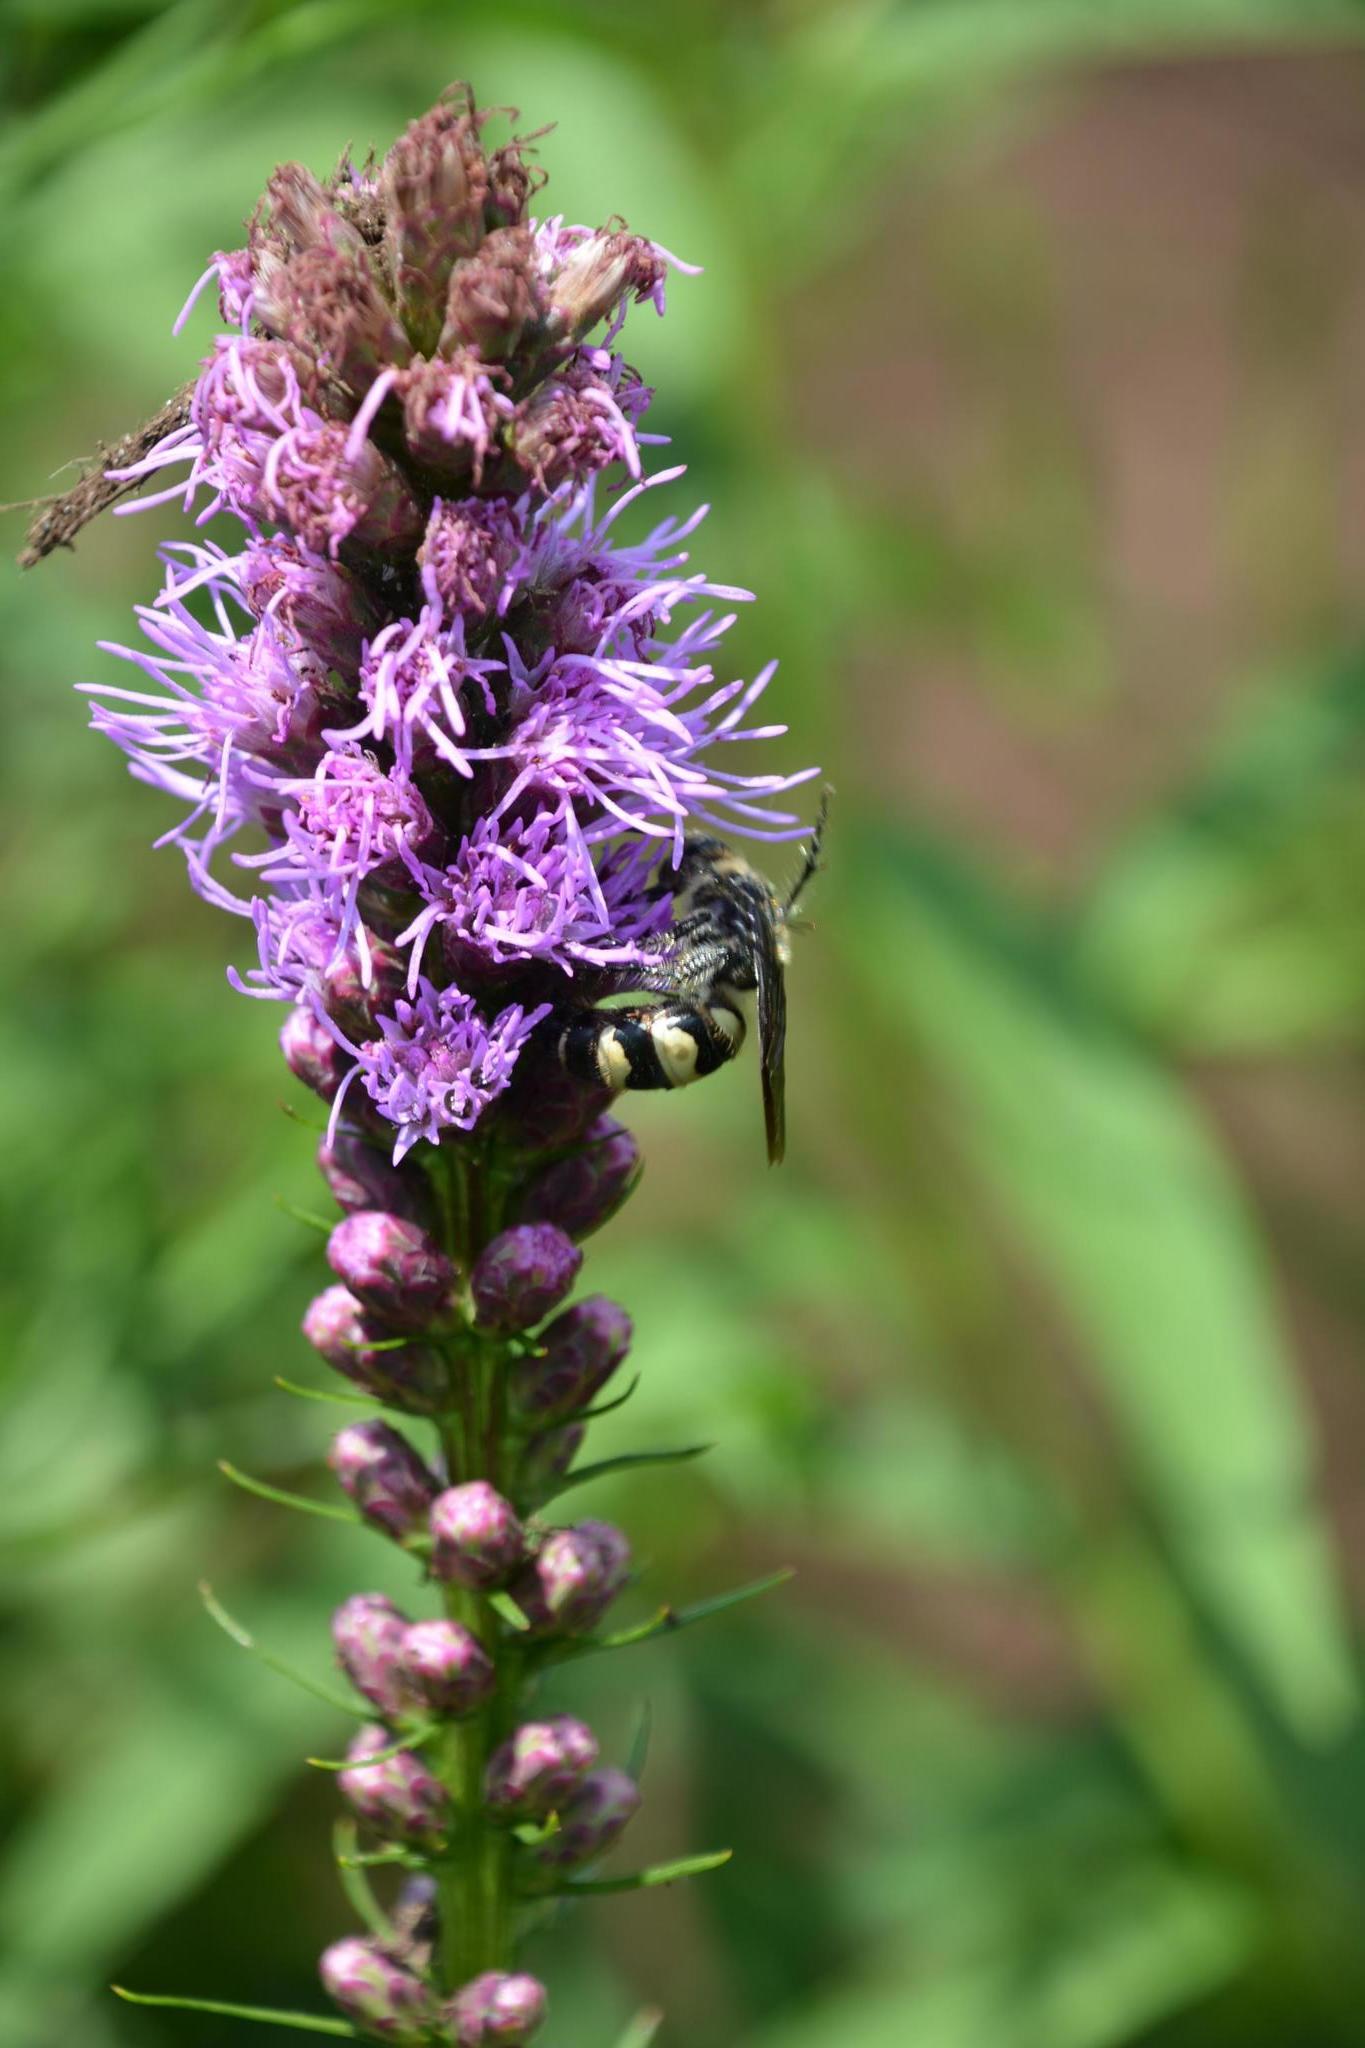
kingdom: Animalia
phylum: Arthropoda
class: Insecta
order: Hymenoptera
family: Scoliidae
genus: Dielis
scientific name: Dielis
